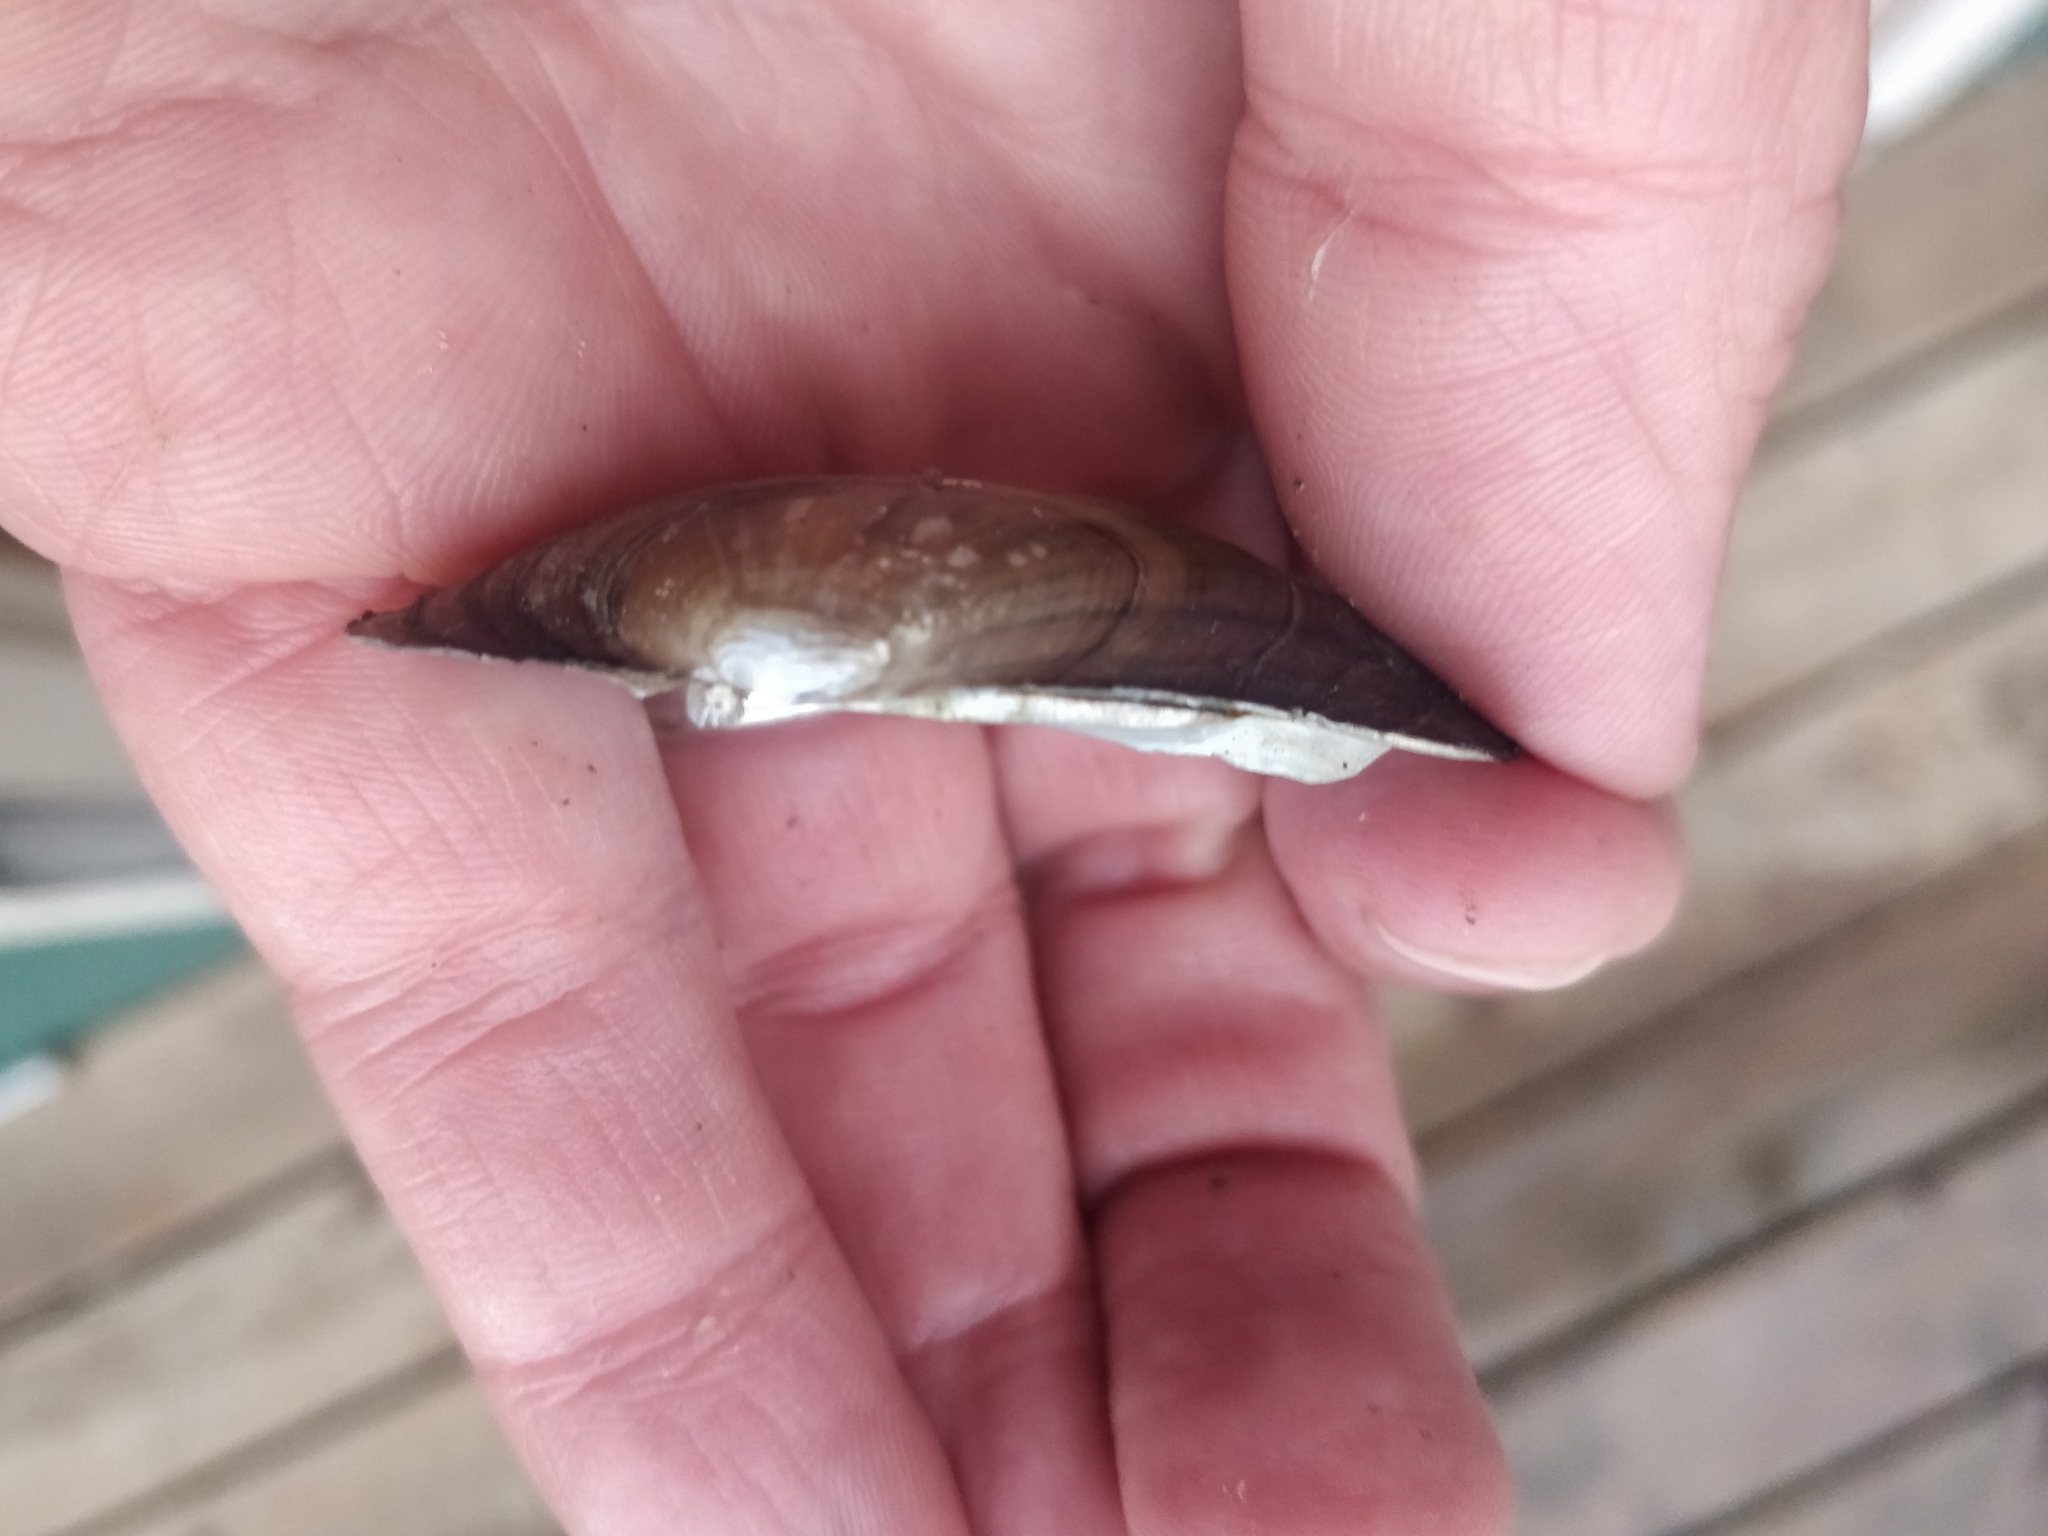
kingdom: Animalia
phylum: Mollusca
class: Bivalvia
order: Unionida
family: Unionidae
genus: Lampsilis
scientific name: Lampsilis siliquoidea
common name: Fatmucket
